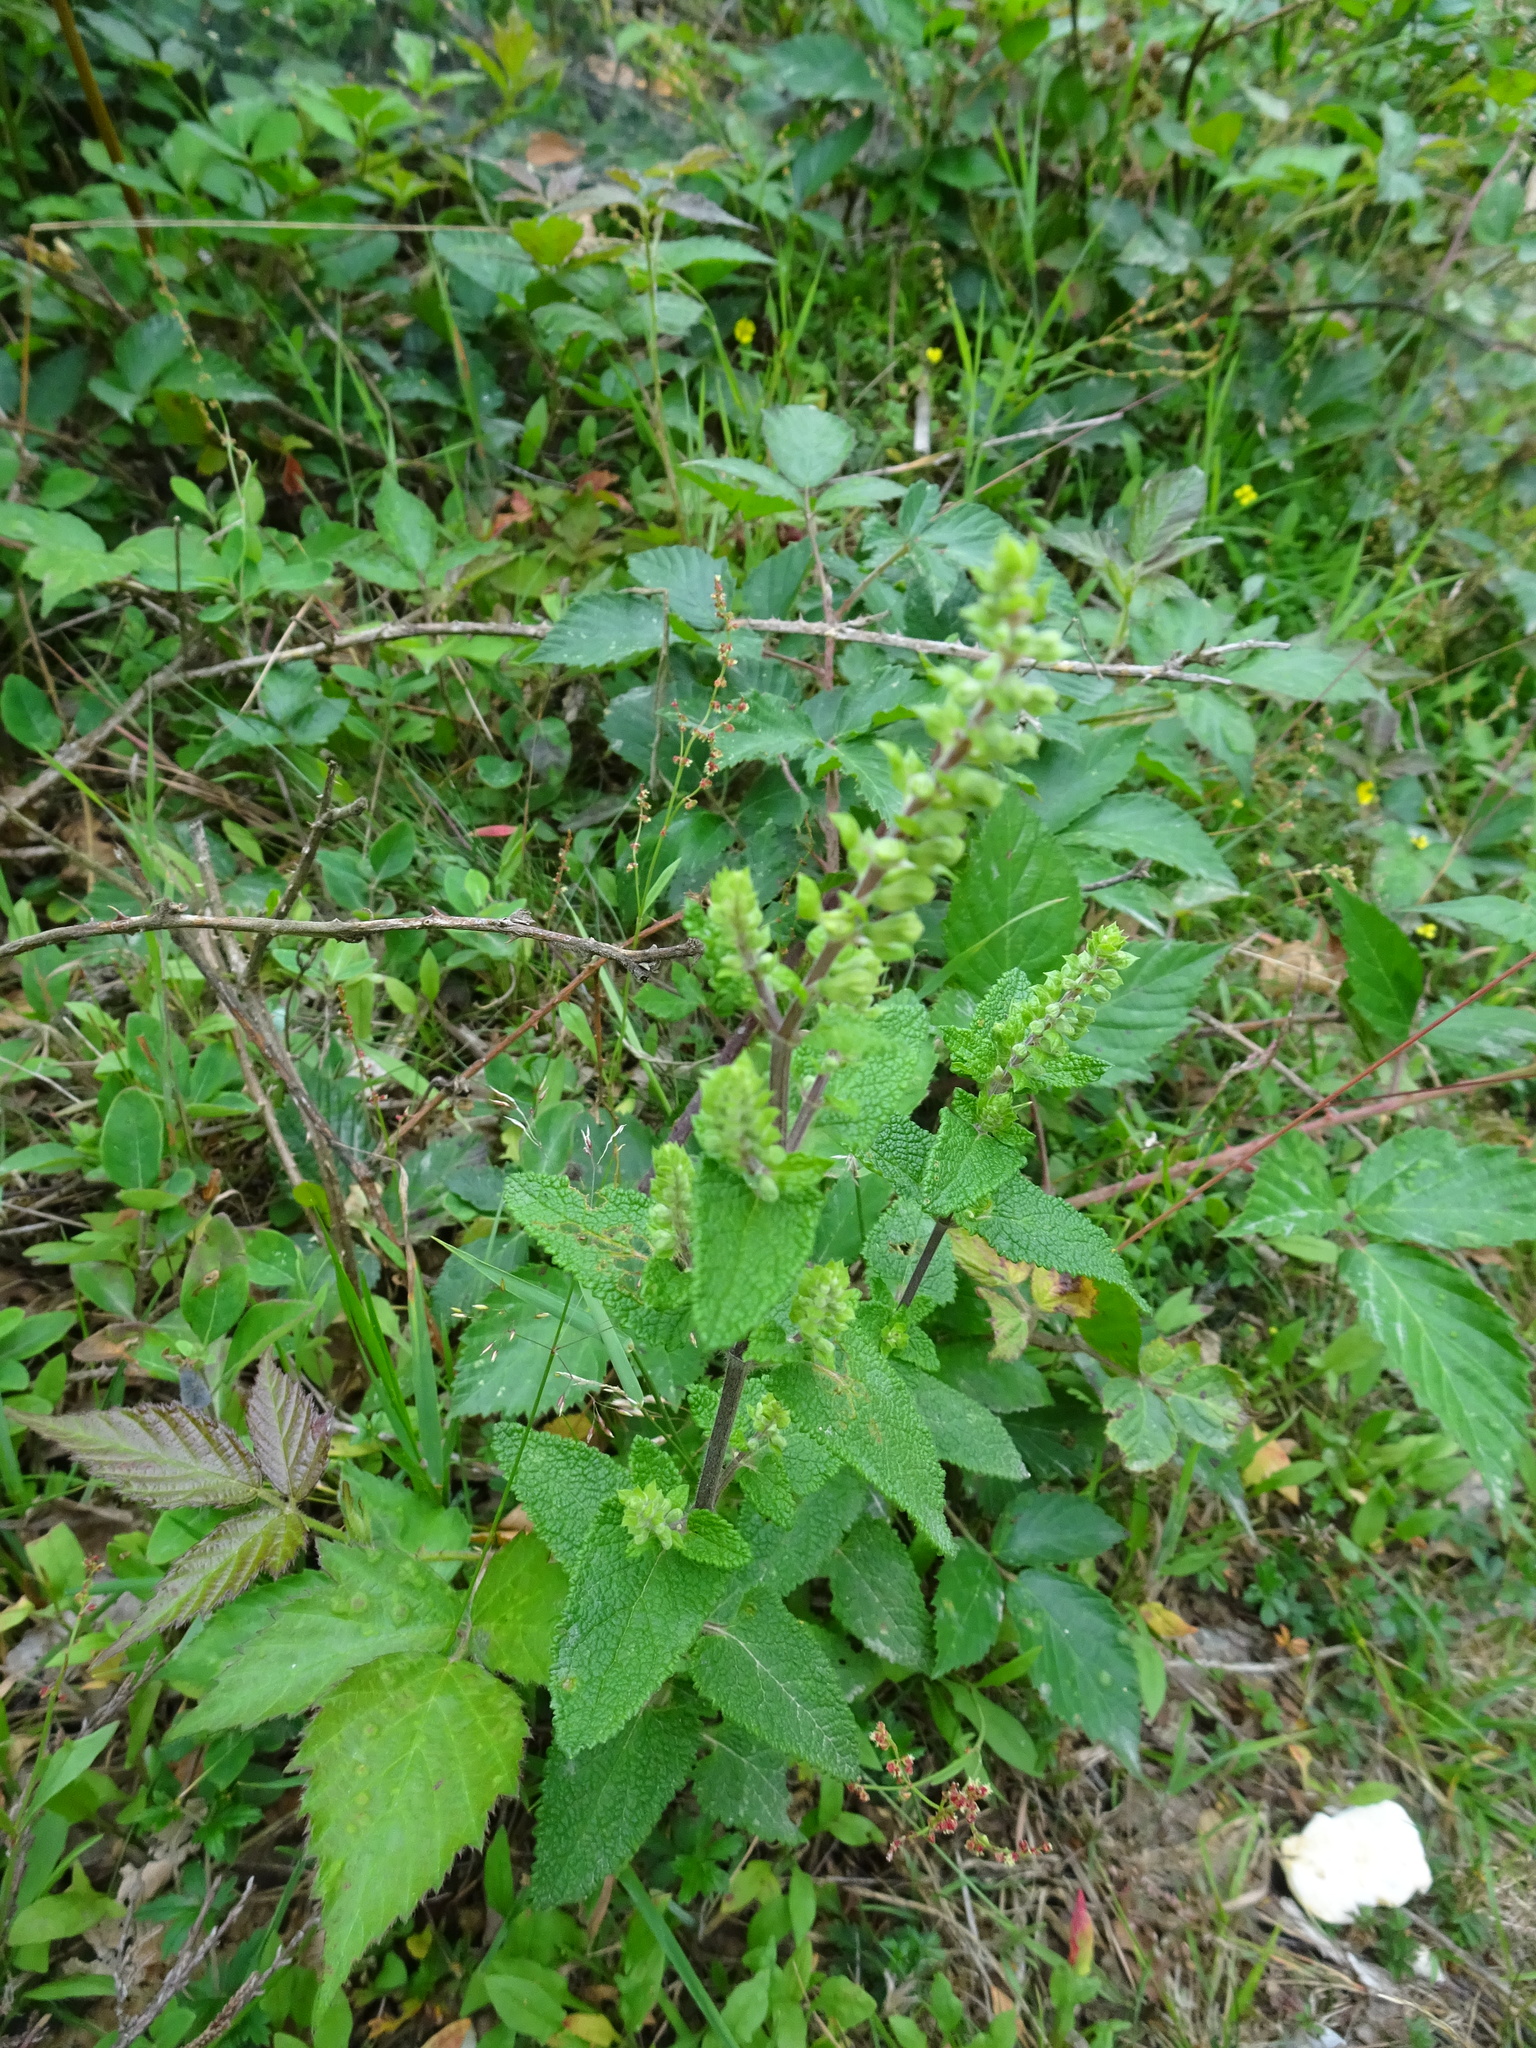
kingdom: Plantae
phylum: Tracheophyta
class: Magnoliopsida
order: Lamiales
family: Lamiaceae
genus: Teucrium
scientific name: Teucrium scorodonia
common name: Woodland germander
